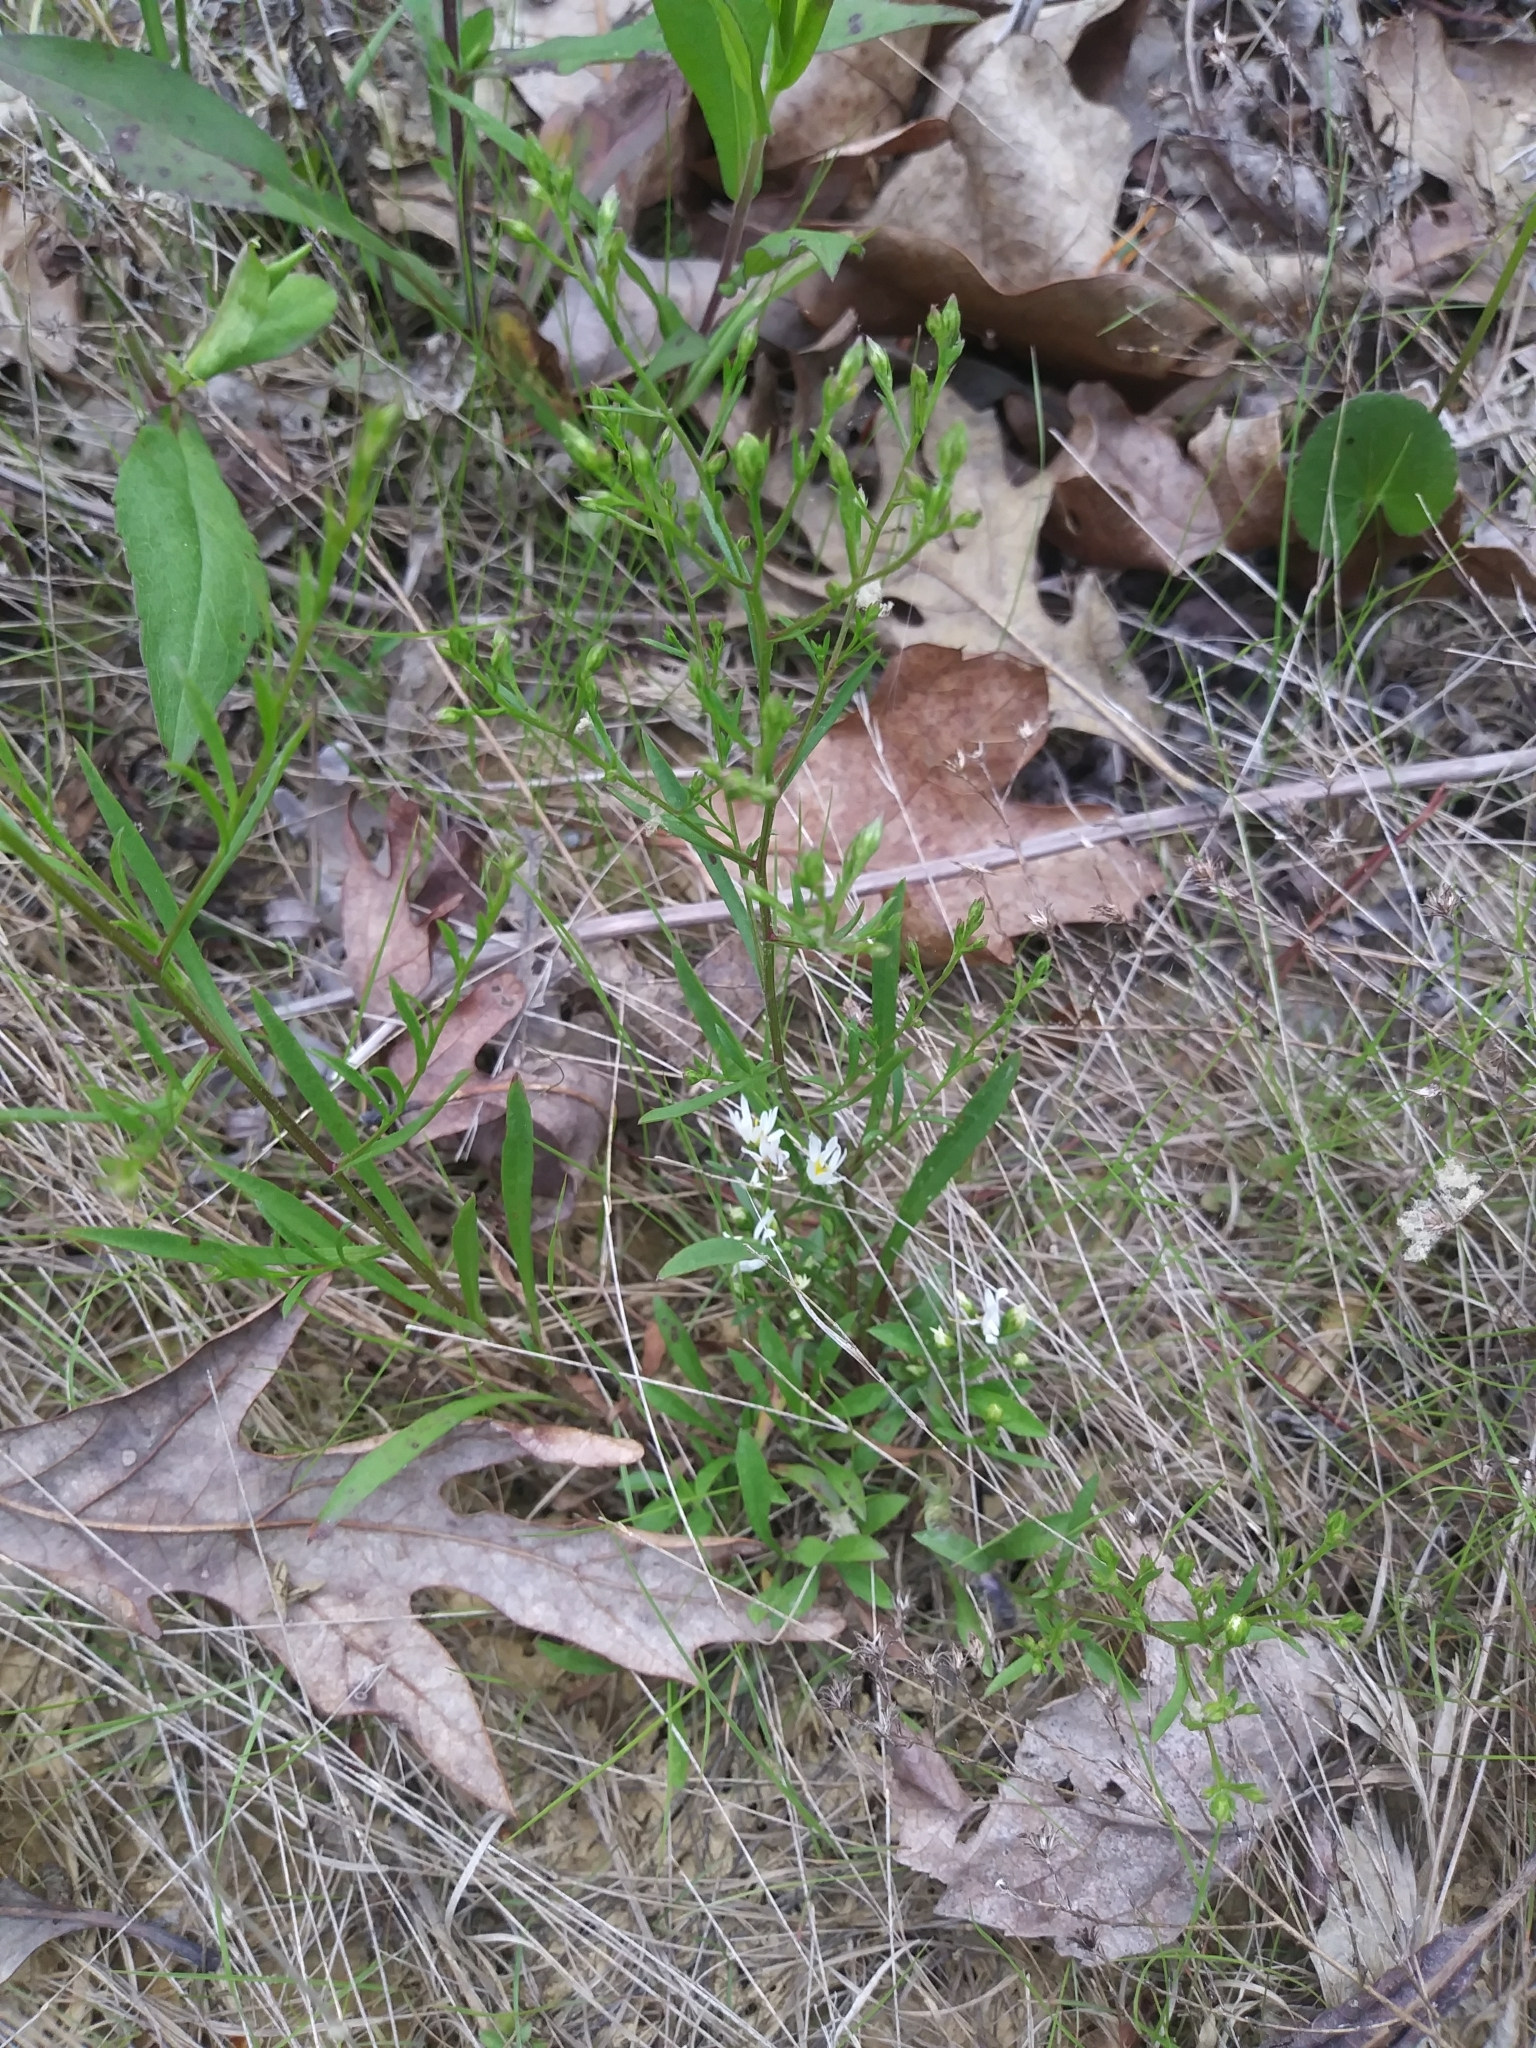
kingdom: Plantae
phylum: Tracheophyta
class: Magnoliopsida
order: Asterales
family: Asteraceae
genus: Symphyotrichum
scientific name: Symphyotrichum depauperatum
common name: Serpentine aster
